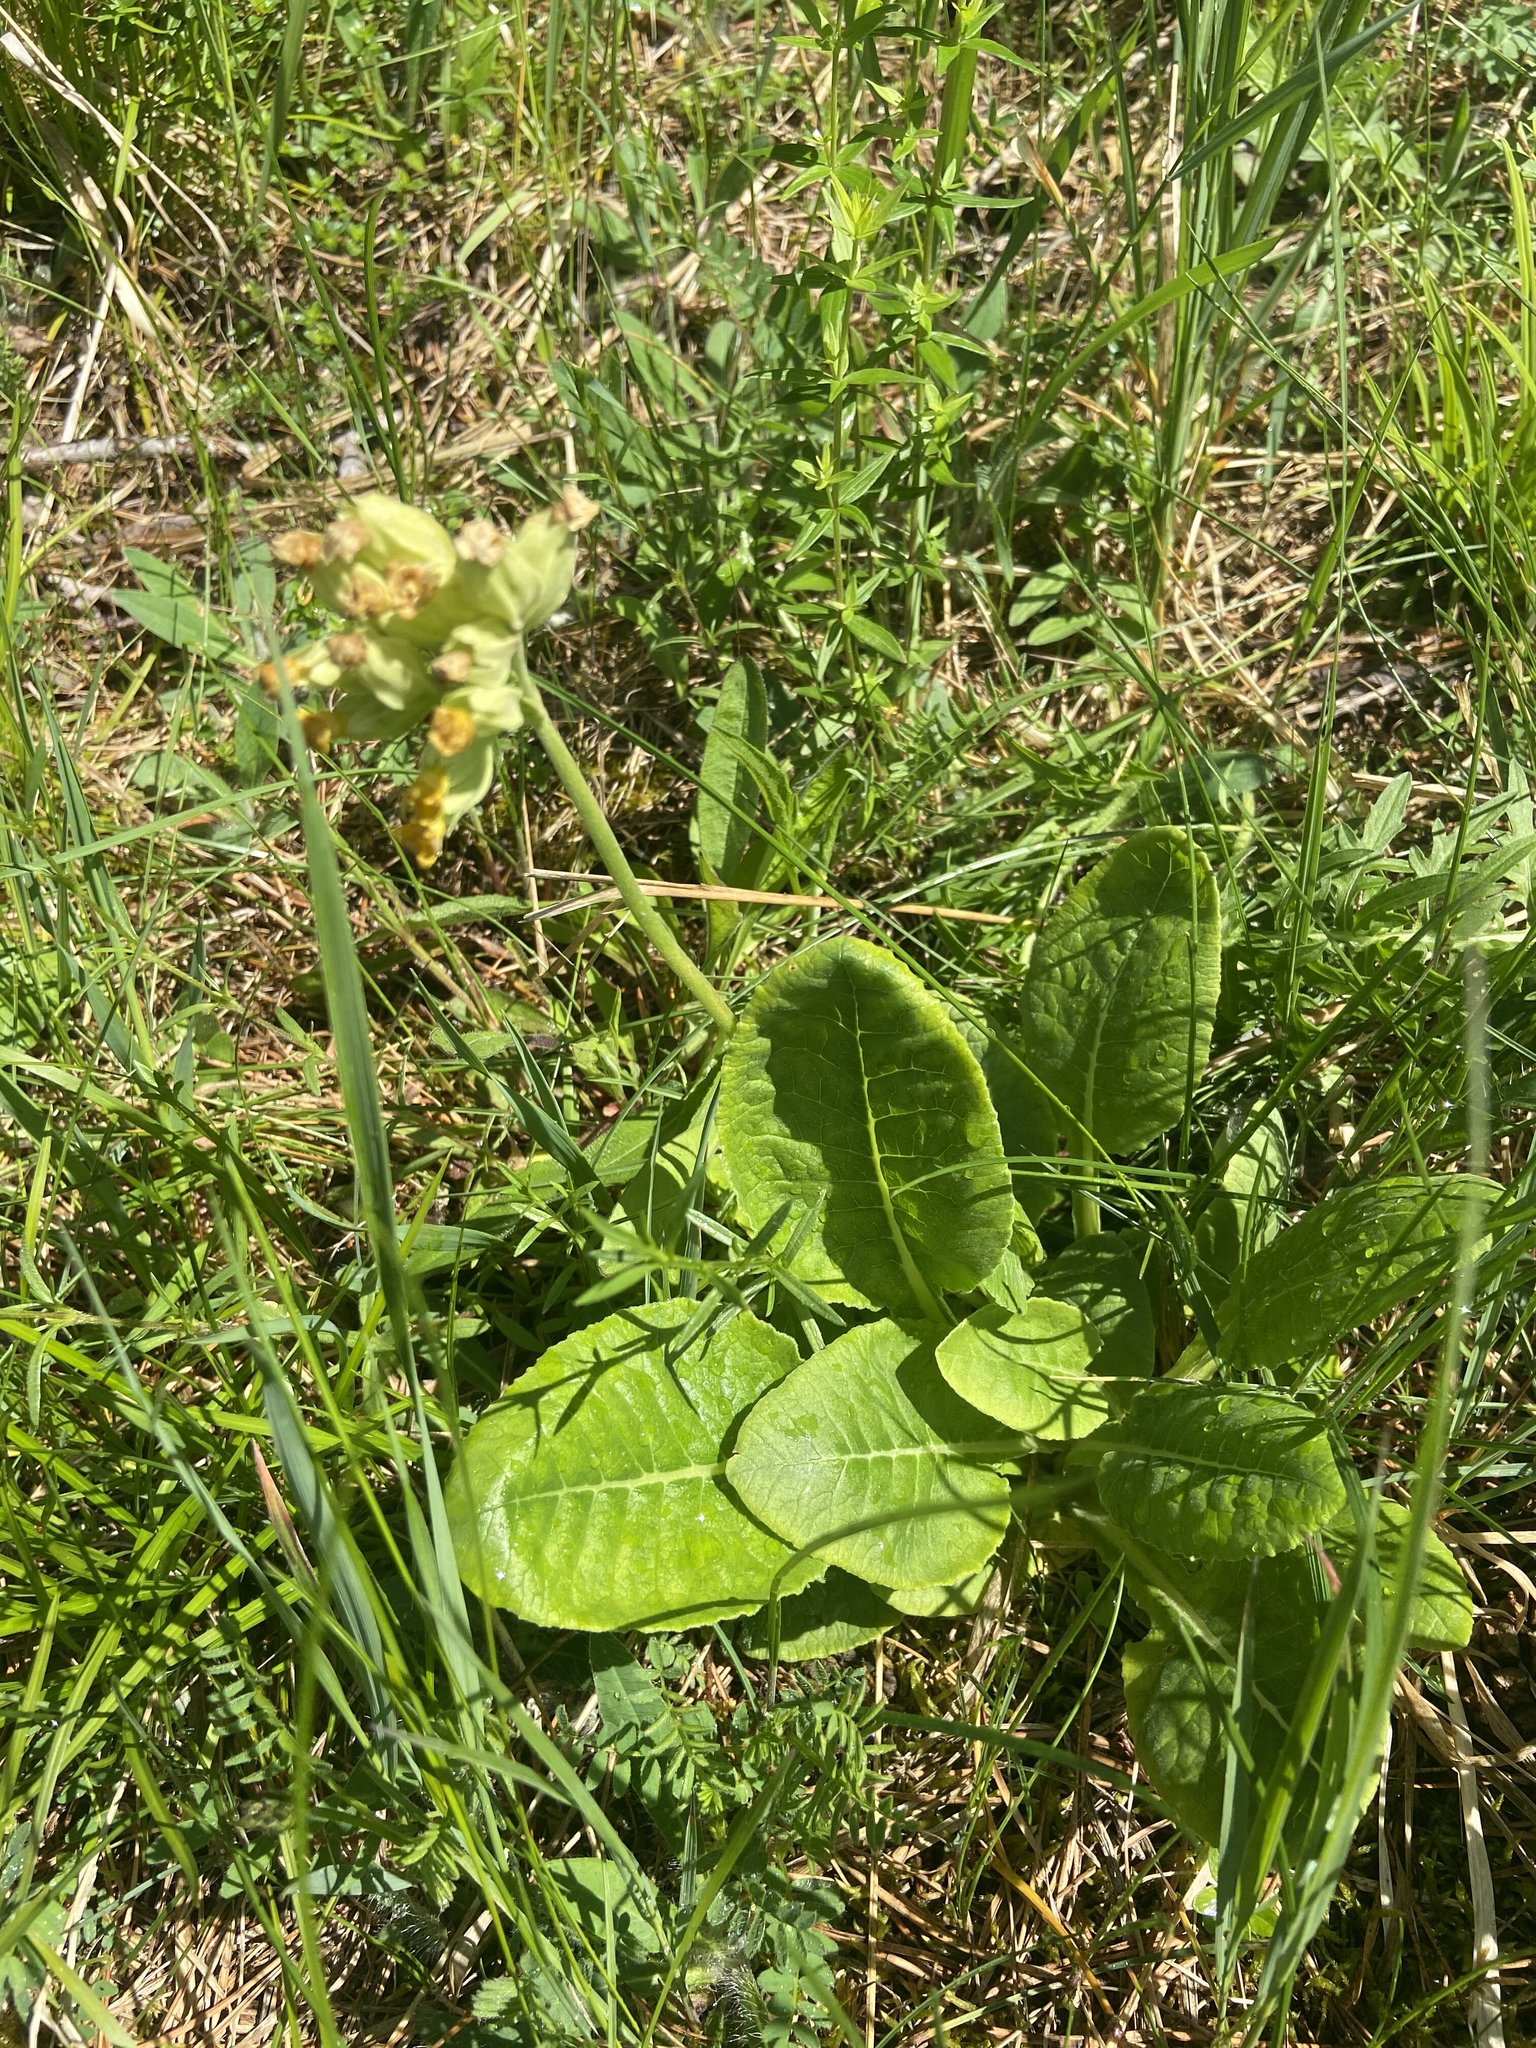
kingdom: Plantae
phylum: Tracheophyta
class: Magnoliopsida
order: Ericales
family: Primulaceae
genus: Primula
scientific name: Primula veris
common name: Cowslip
